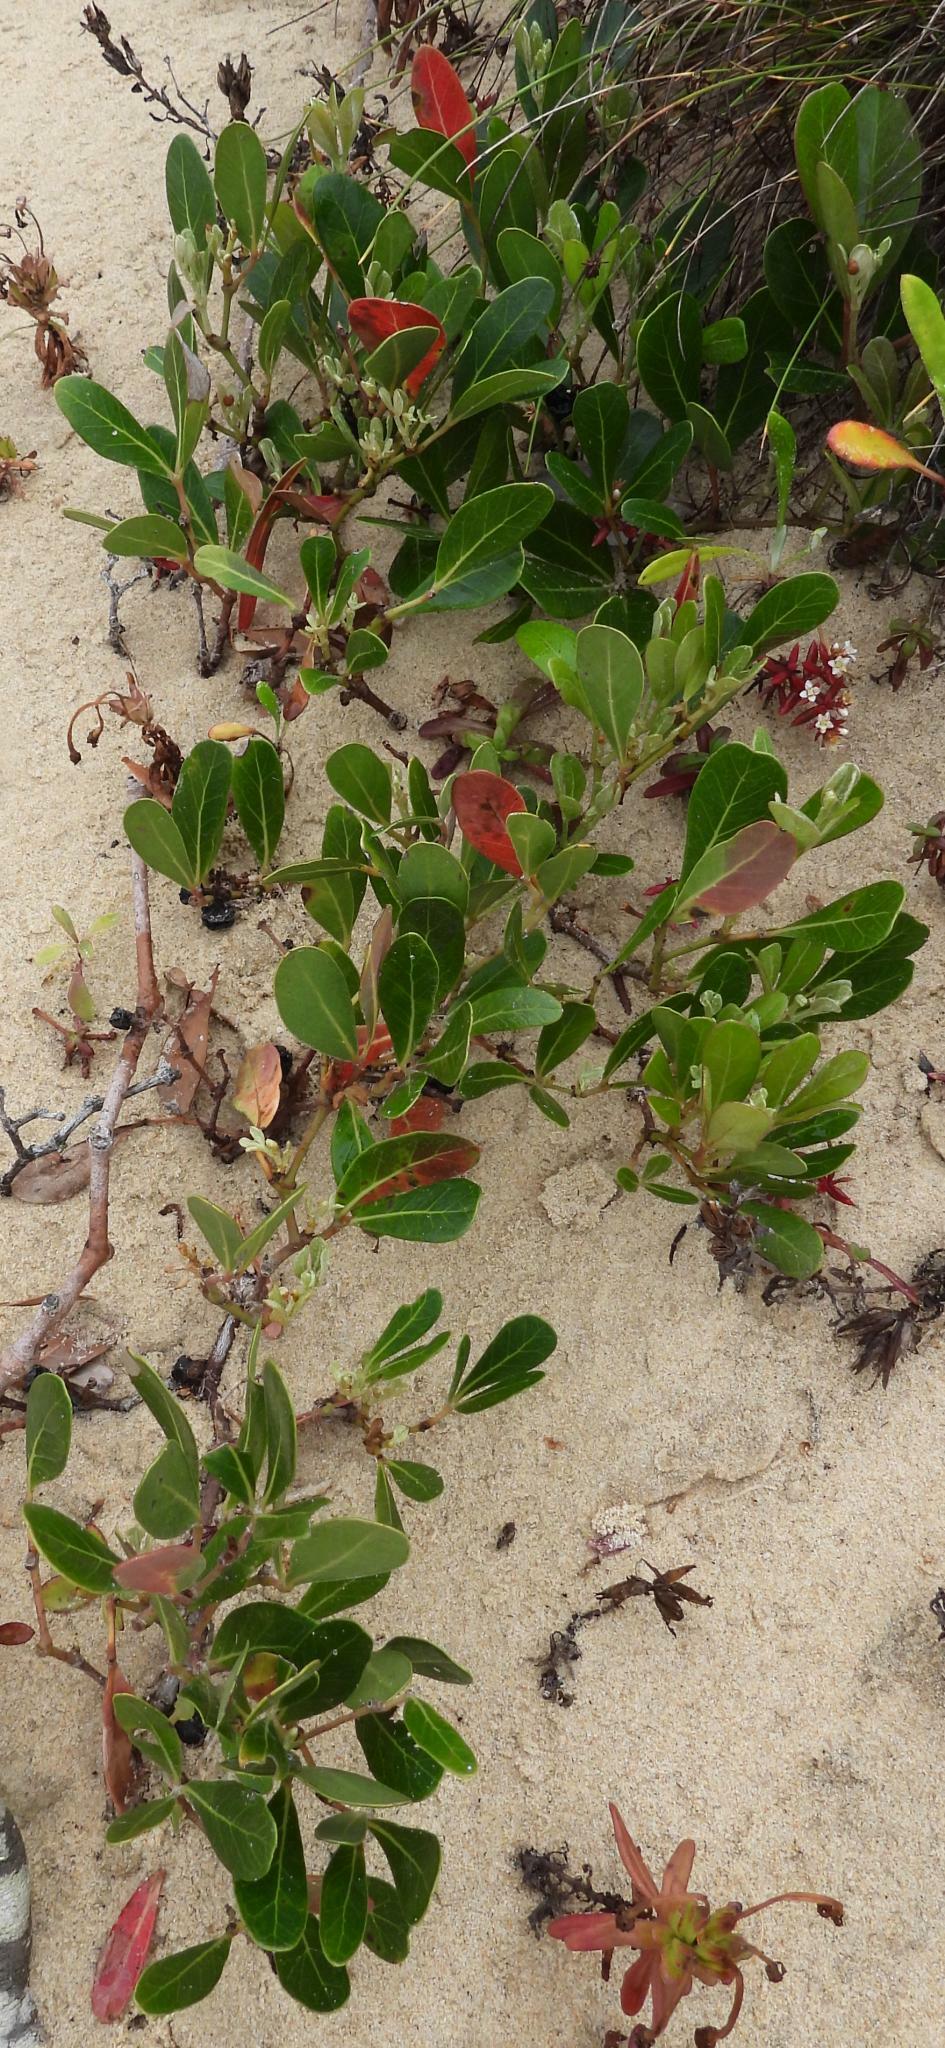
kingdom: Plantae
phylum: Tracheophyta
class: Magnoliopsida
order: Vitales
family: Vitaceae
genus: Rhoicissus
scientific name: Rhoicissus digitata
